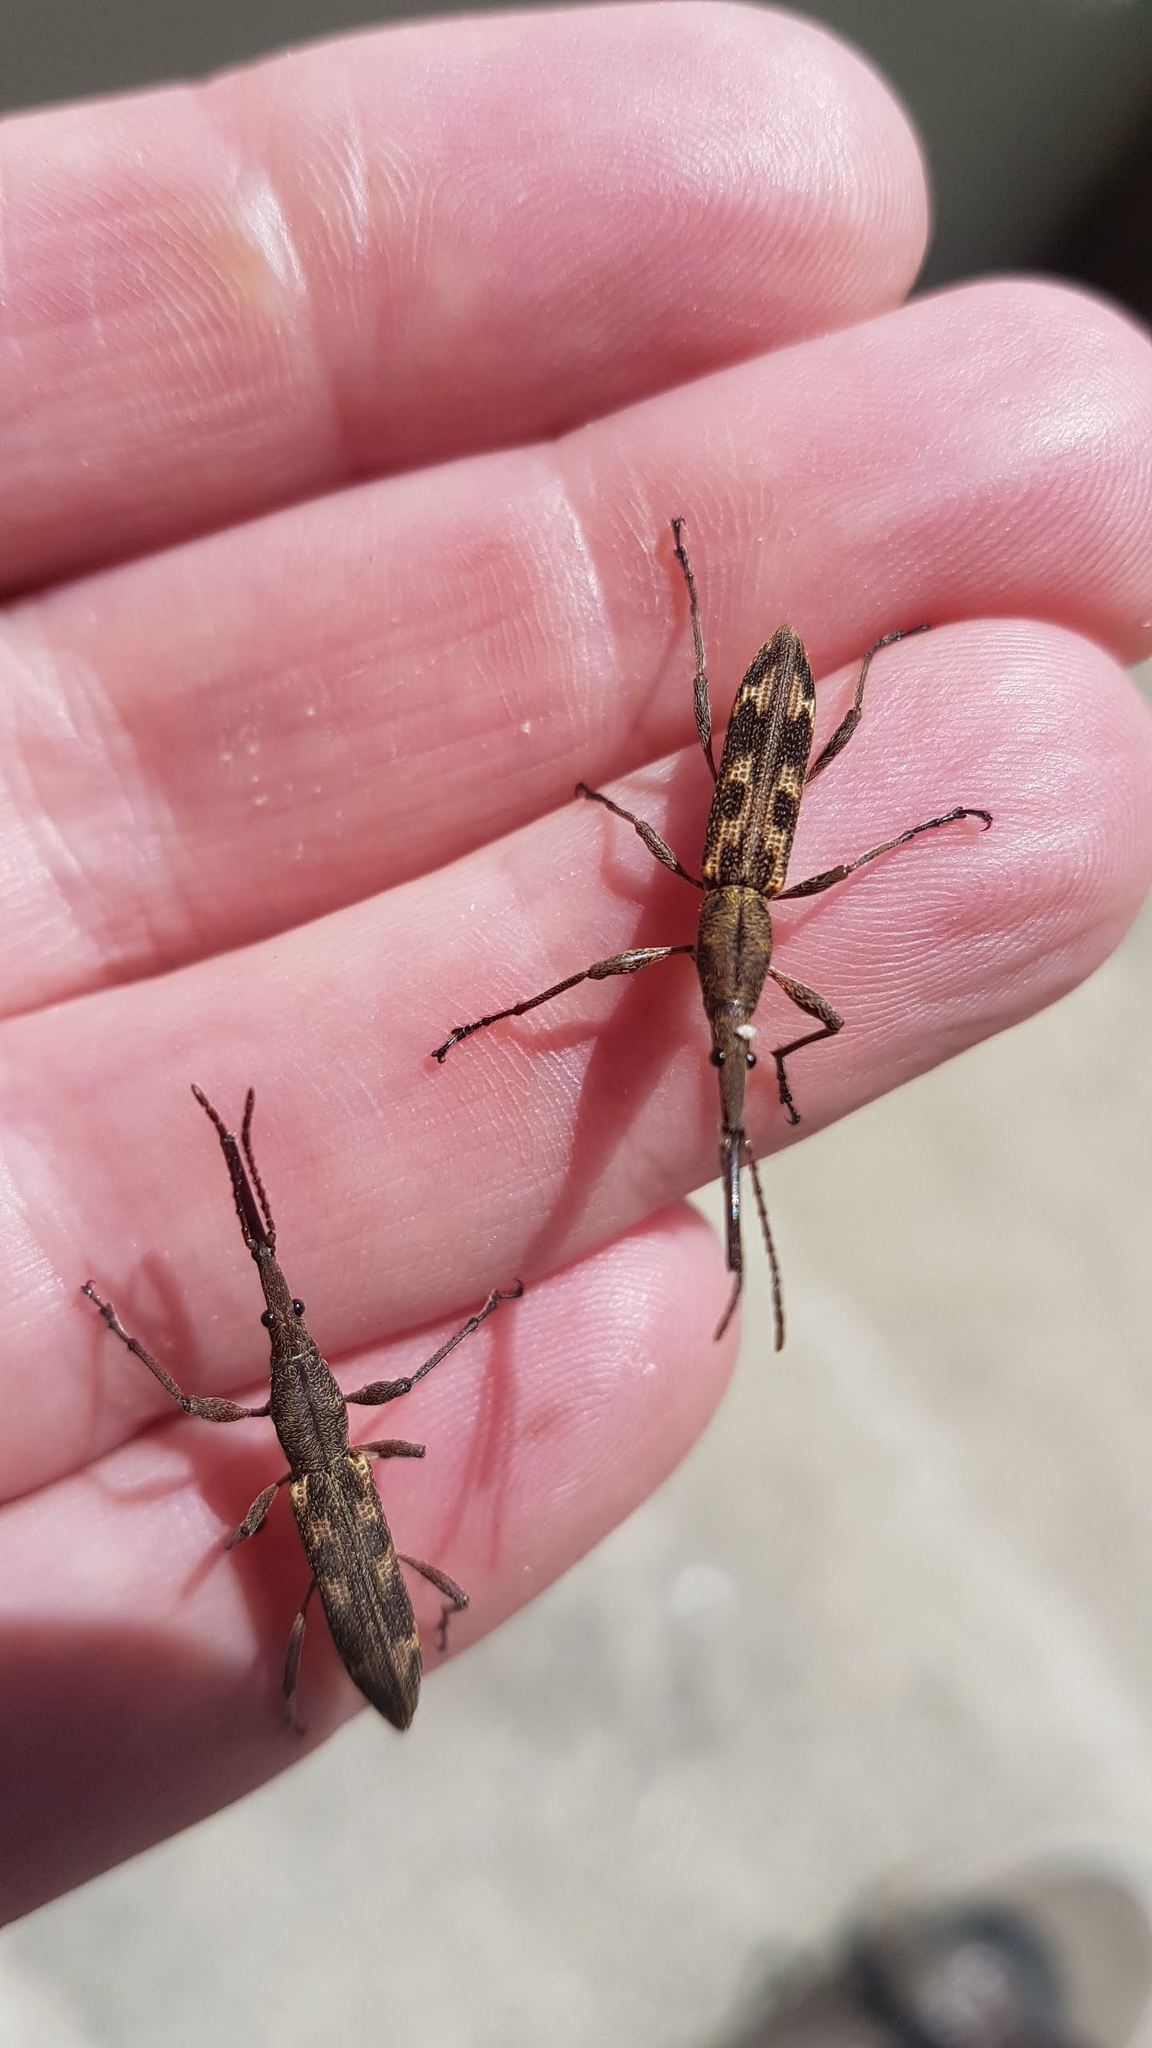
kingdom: Animalia
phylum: Arthropoda
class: Insecta
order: Coleoptera
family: Brentidae
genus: Lasiorhynchus
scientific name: Lasiorhynchus barbicornis
